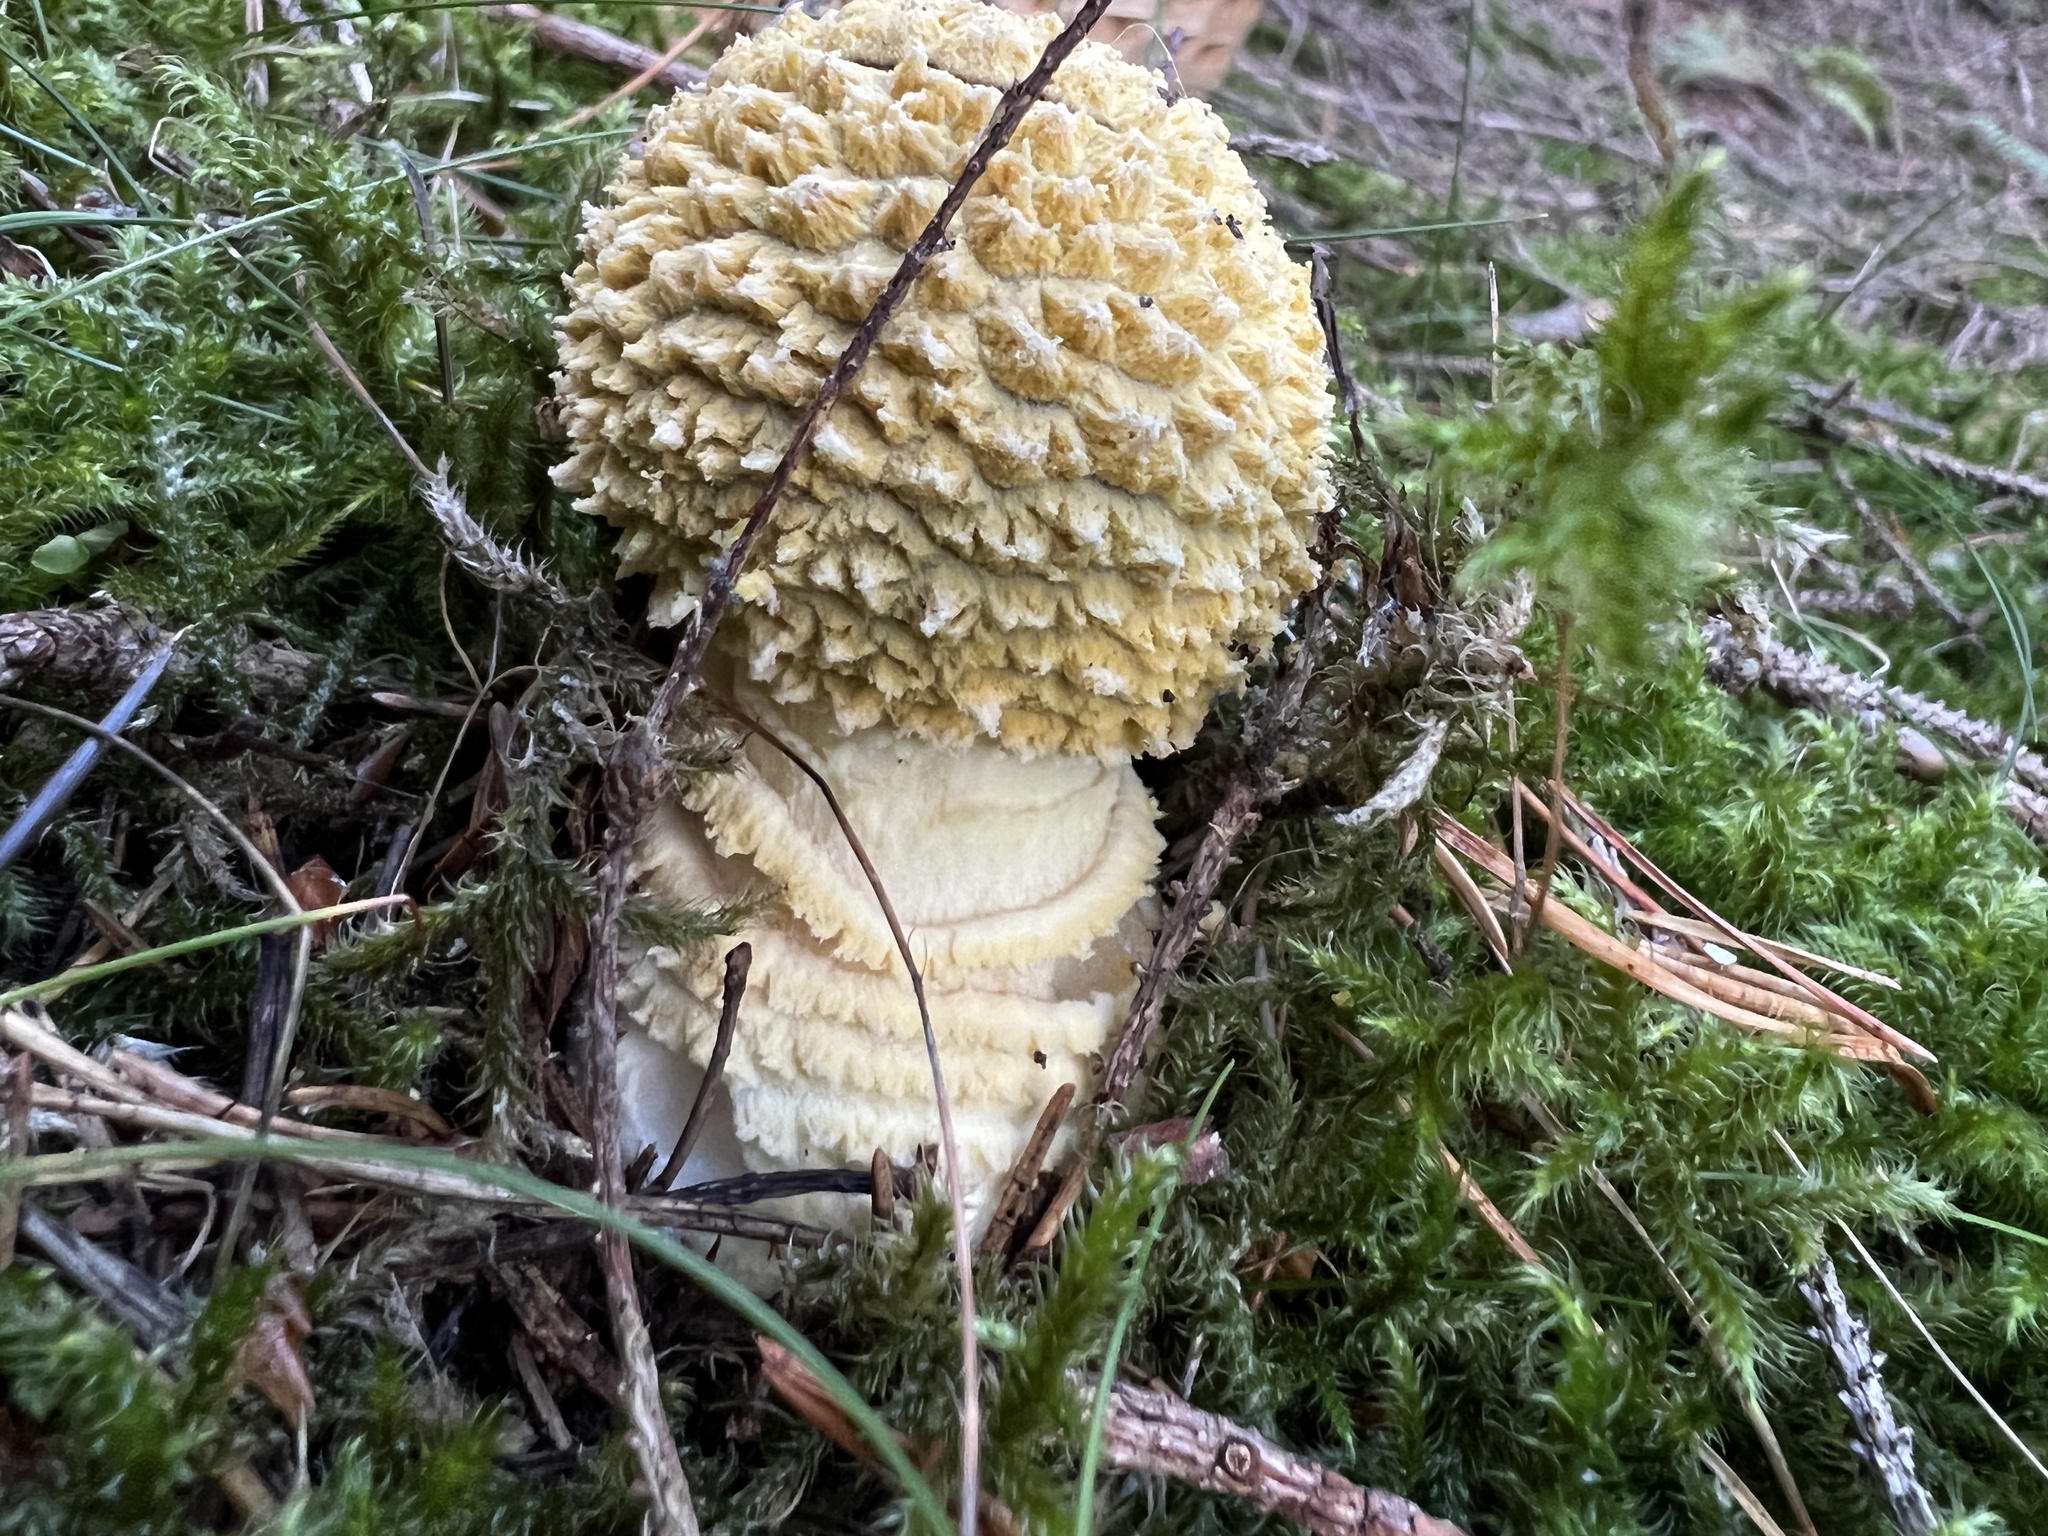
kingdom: Fungi
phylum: Basidiomycota
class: Agaricomycetes
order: Agaricales
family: Amanitaceae
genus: Amanita
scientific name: Amanita regalis
